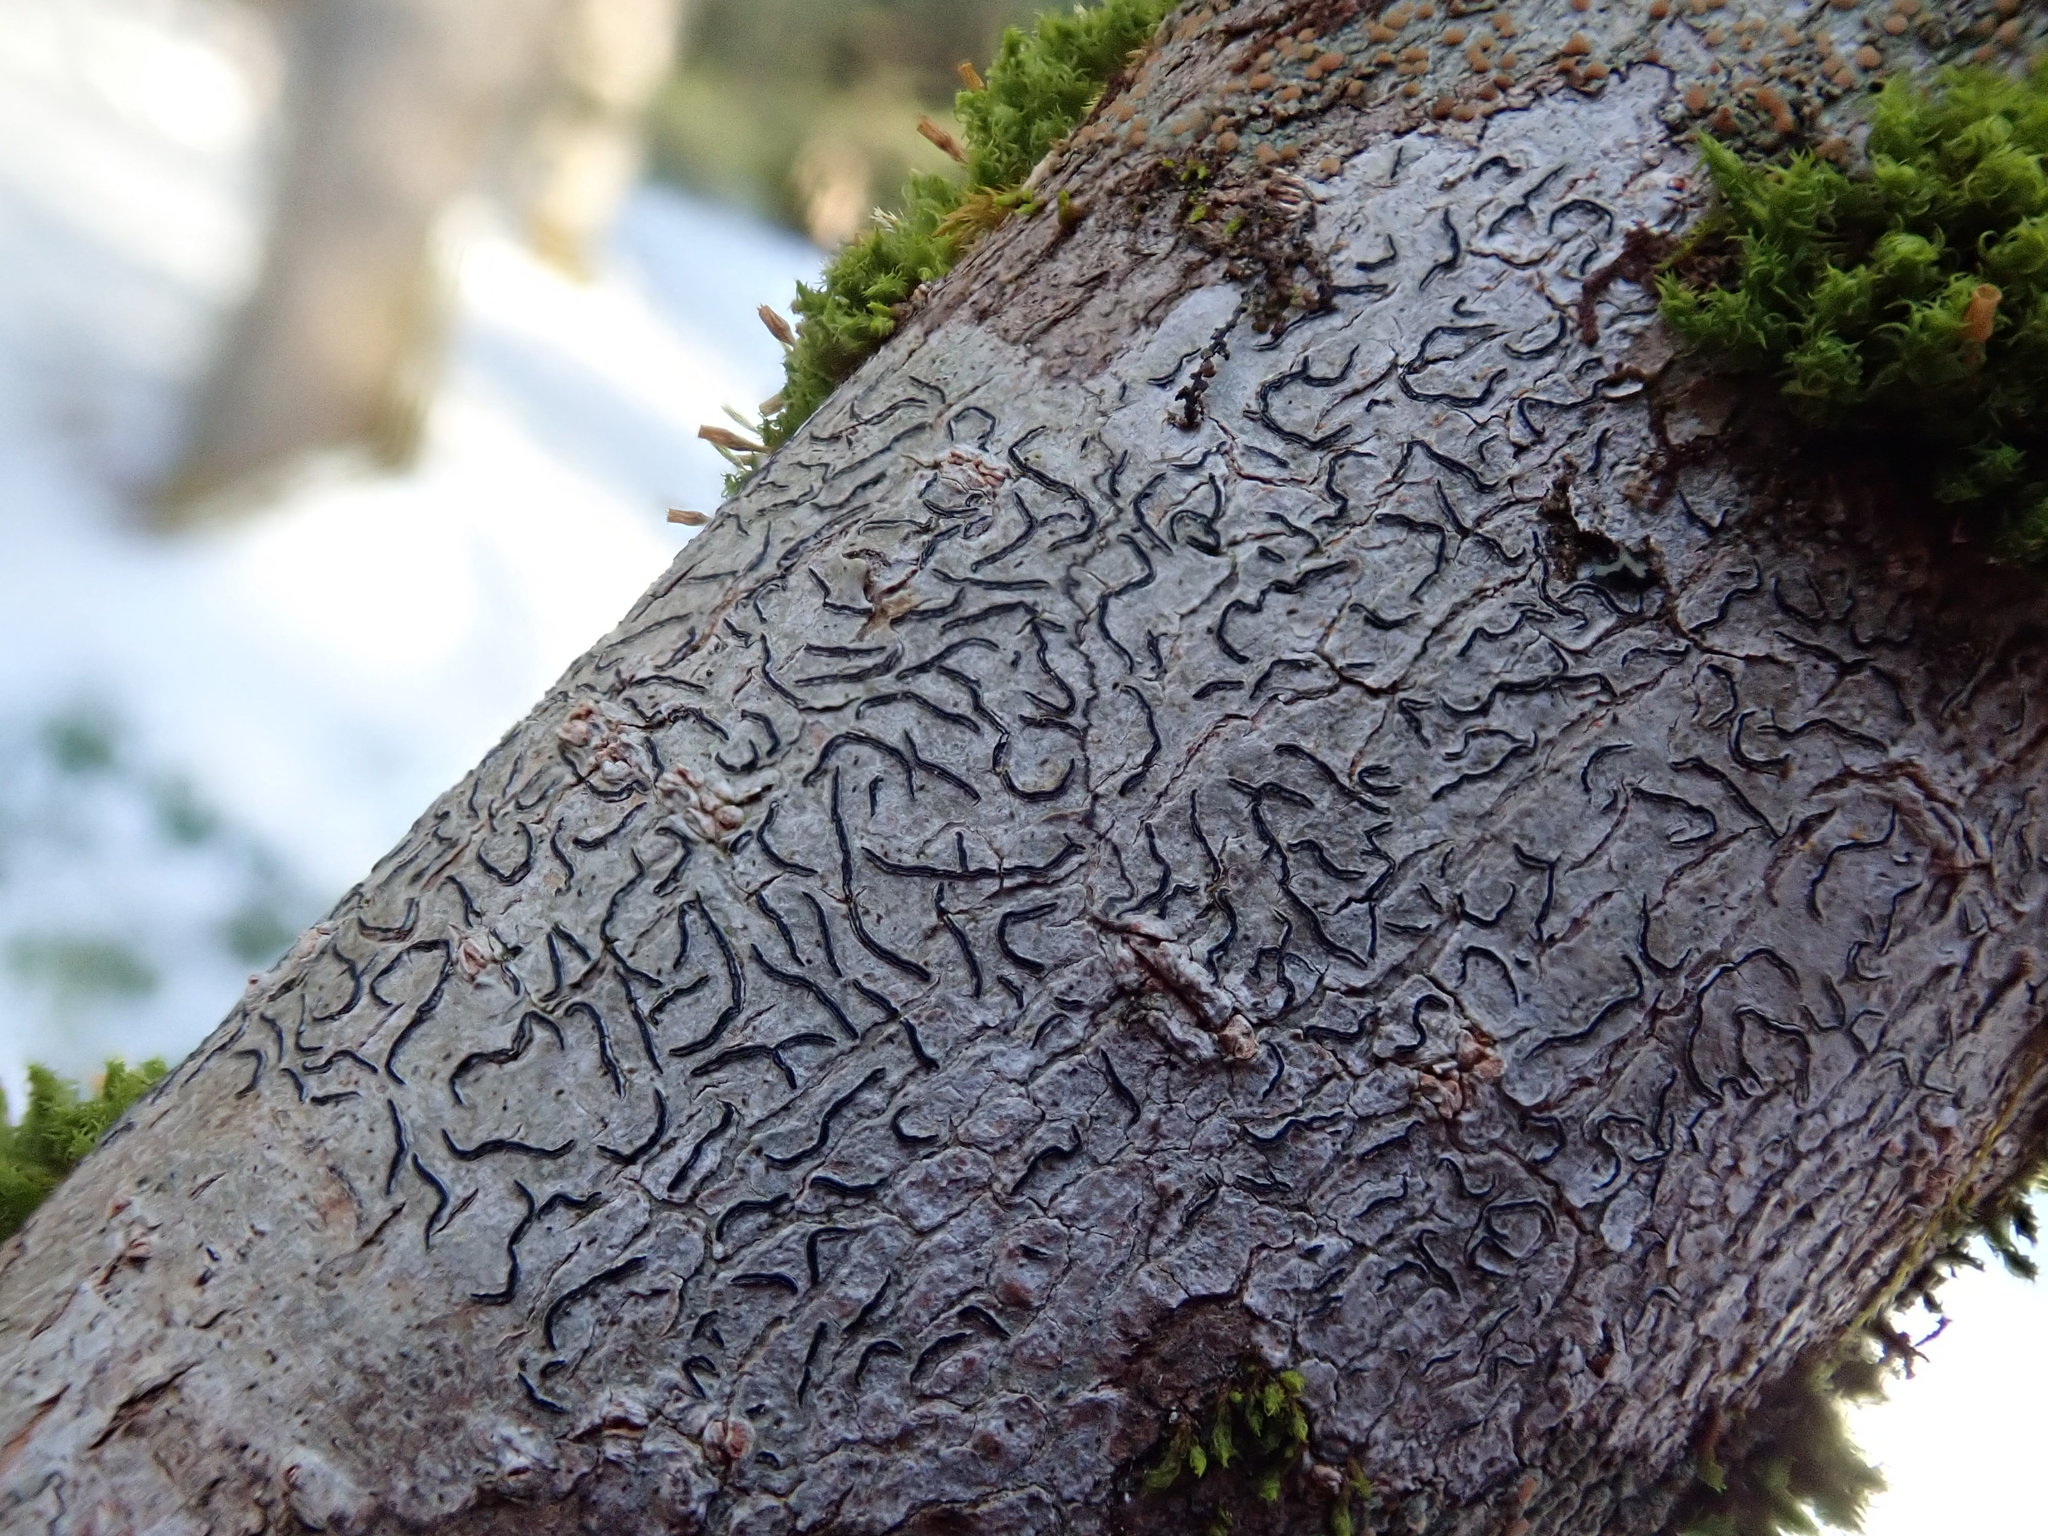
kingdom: Fungi
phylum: Ascomycota
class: Lecanoromycetes
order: Ostropales
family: Graphidaceae
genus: Graphis
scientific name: Graphis scripta
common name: Script lichen
